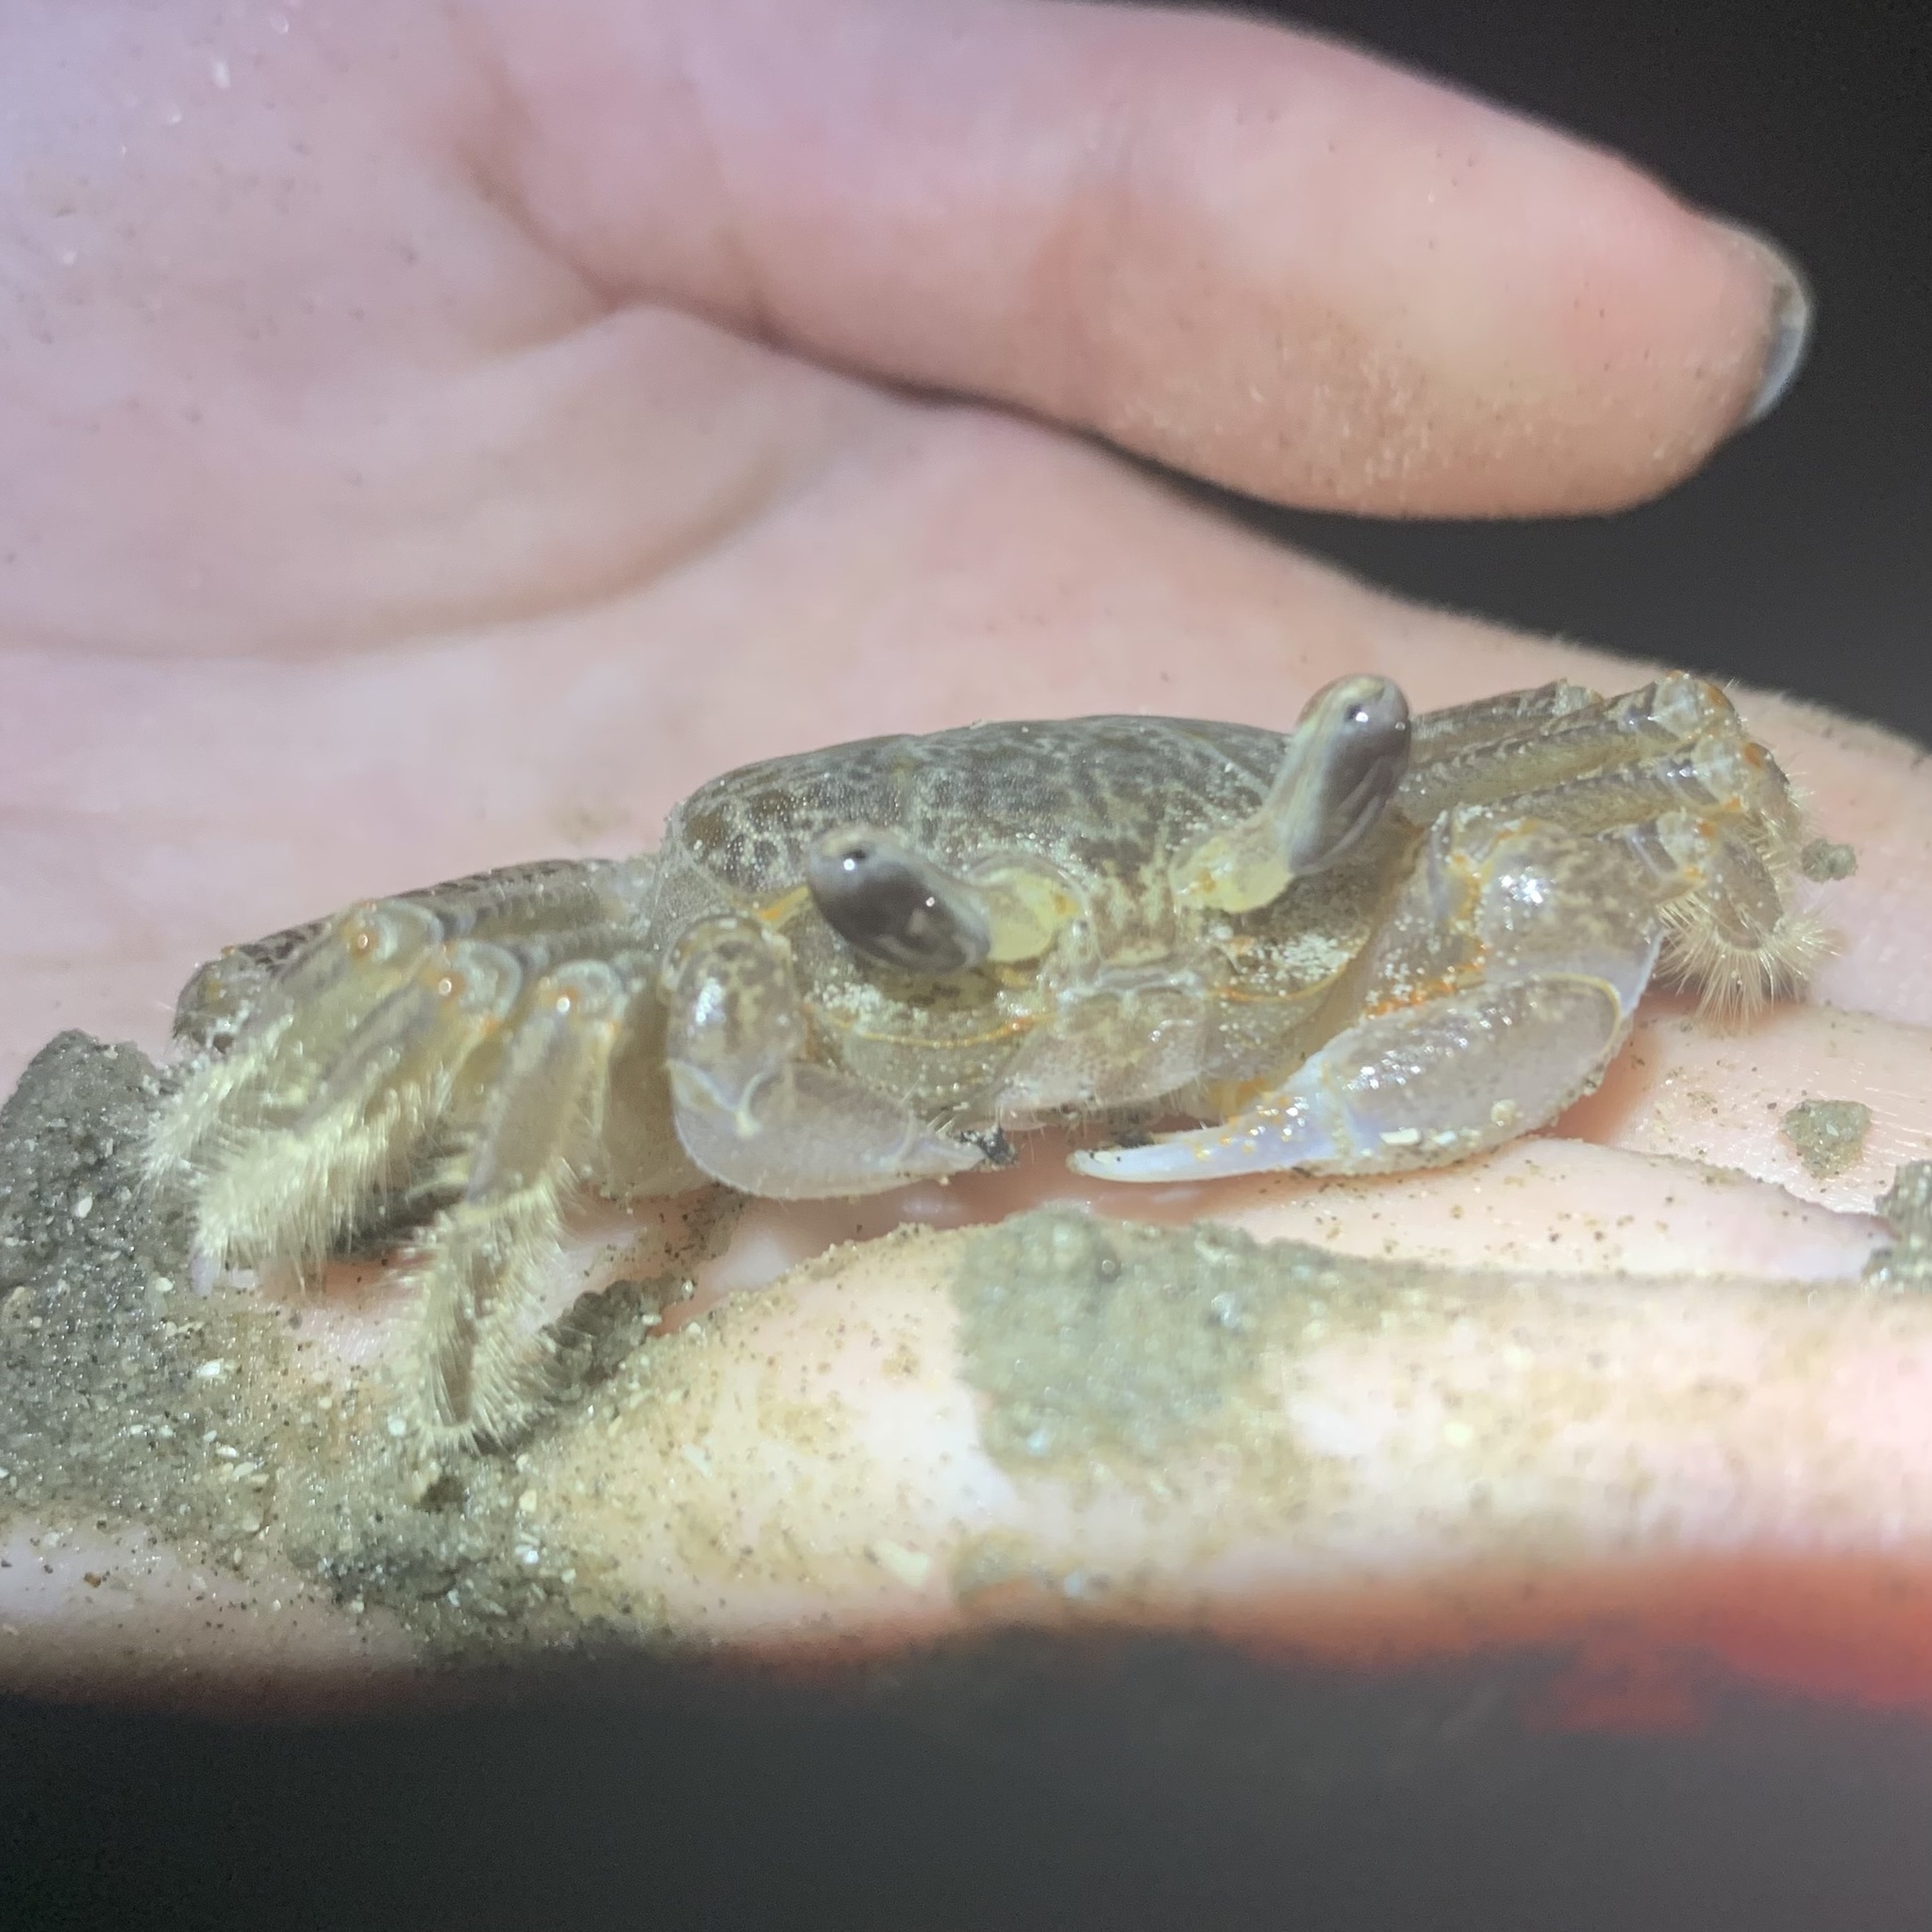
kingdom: Animalia
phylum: Arthropoda
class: Malacostraca
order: Decapoda
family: Ocypodidae
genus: Ocypode
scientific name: Ocypode quadrata
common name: Ghost crab
